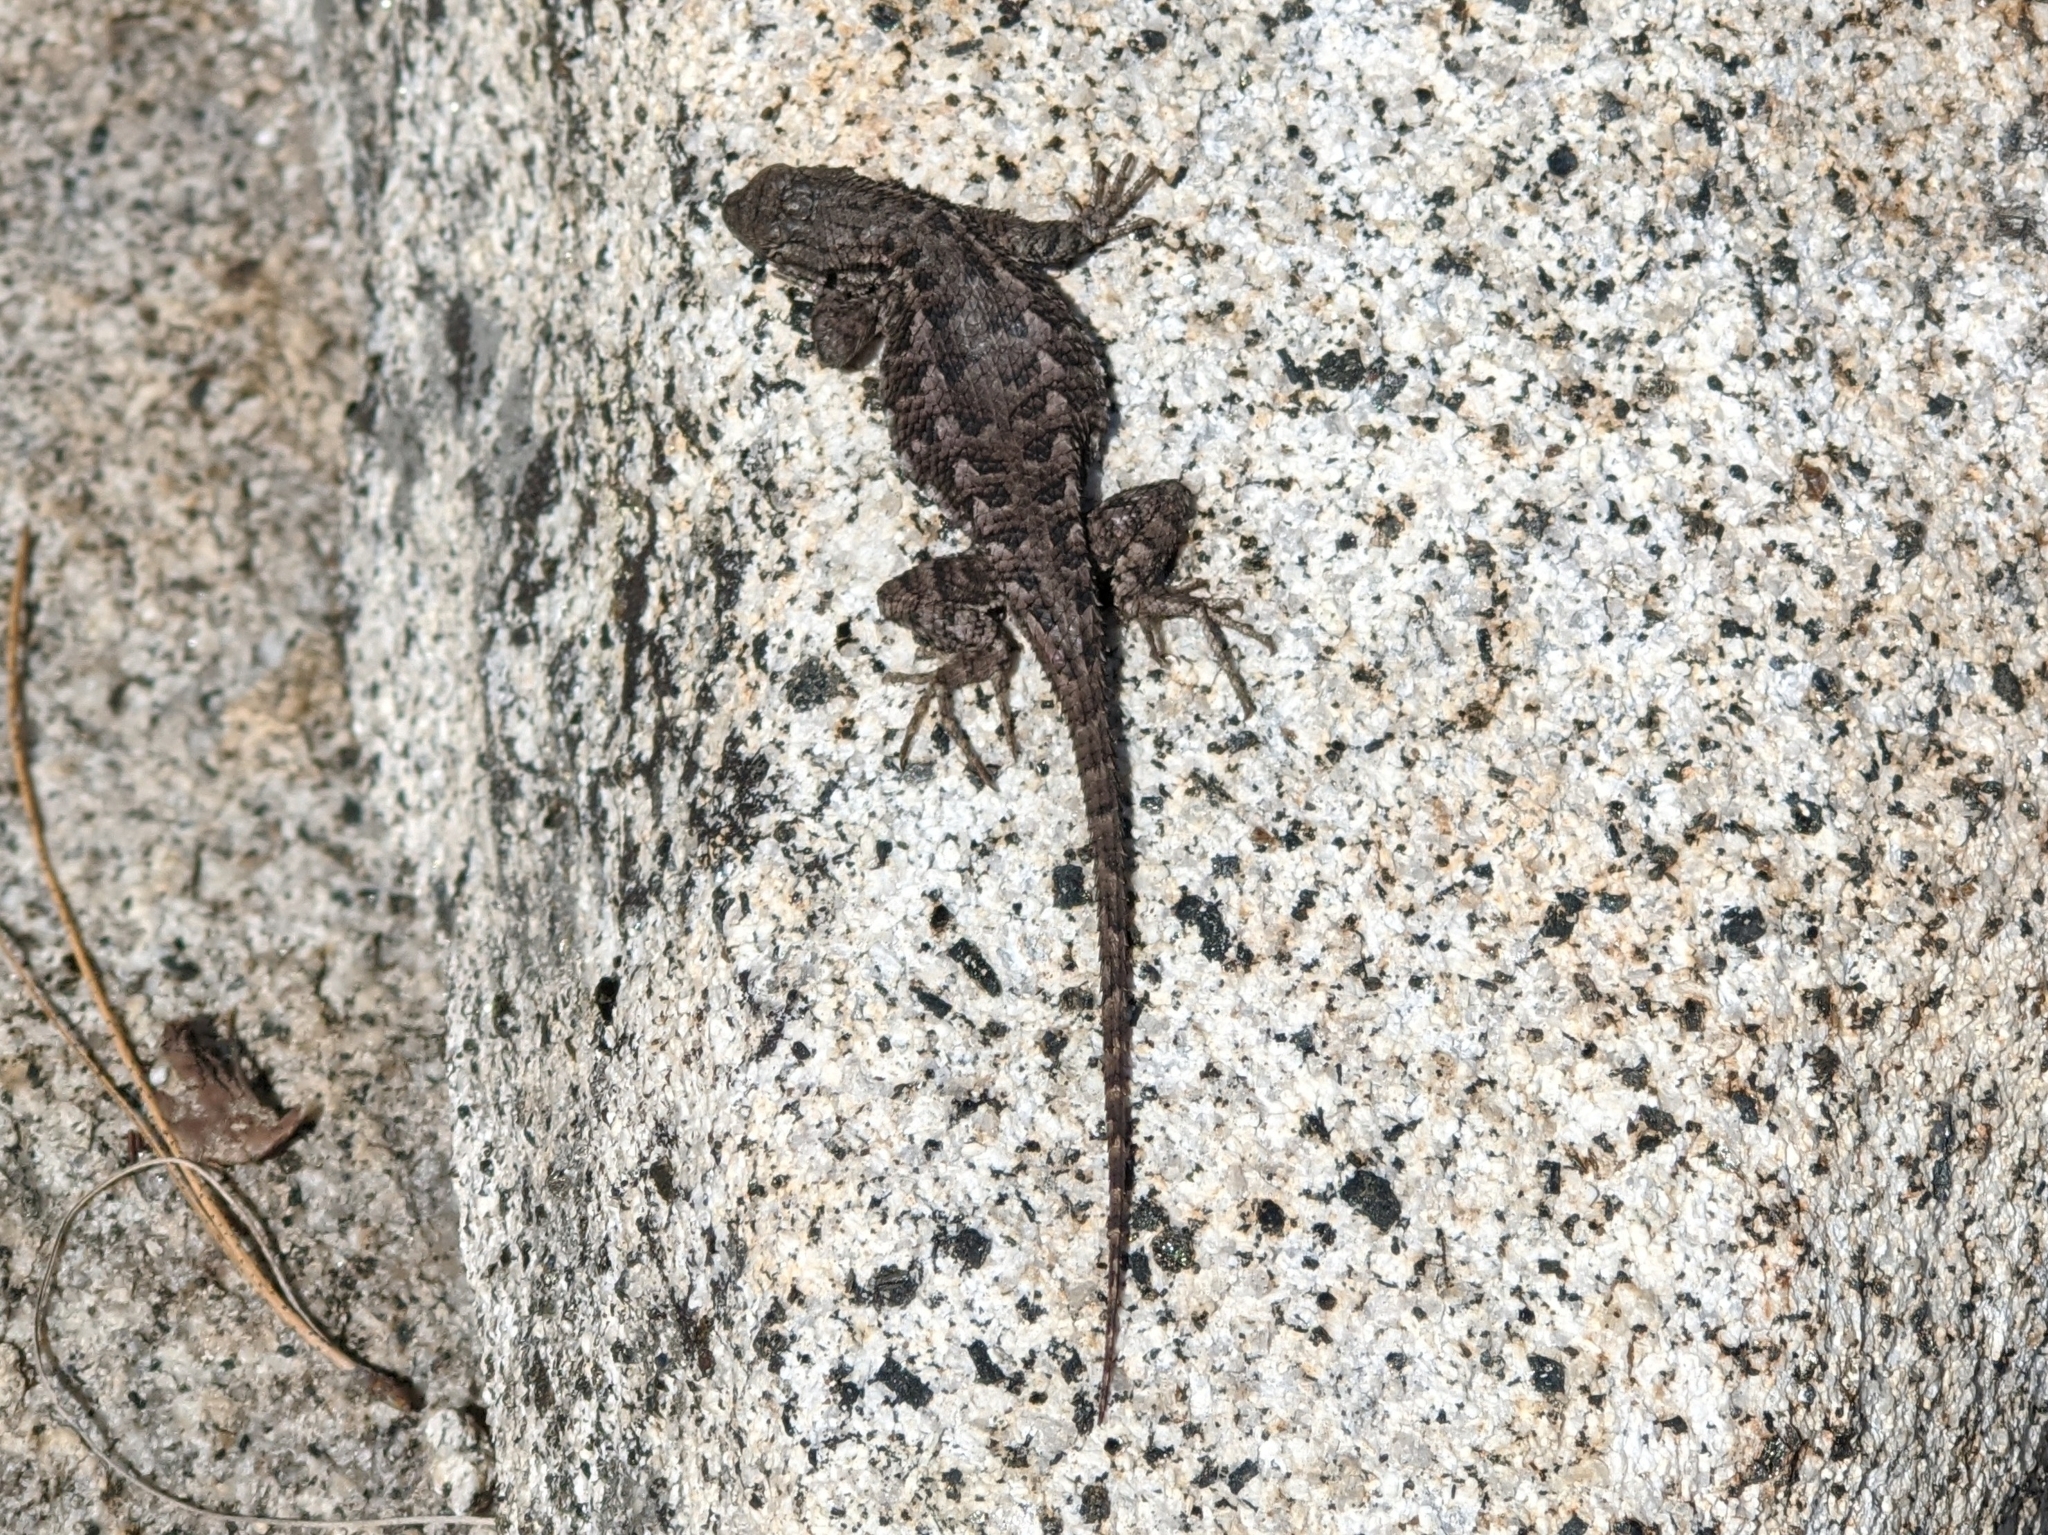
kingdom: Animalia
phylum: Chordata
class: Squamata
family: Phrynosomatidae
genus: Sceloporus
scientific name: Sceloporus occidentalis
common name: Western fence lizard
